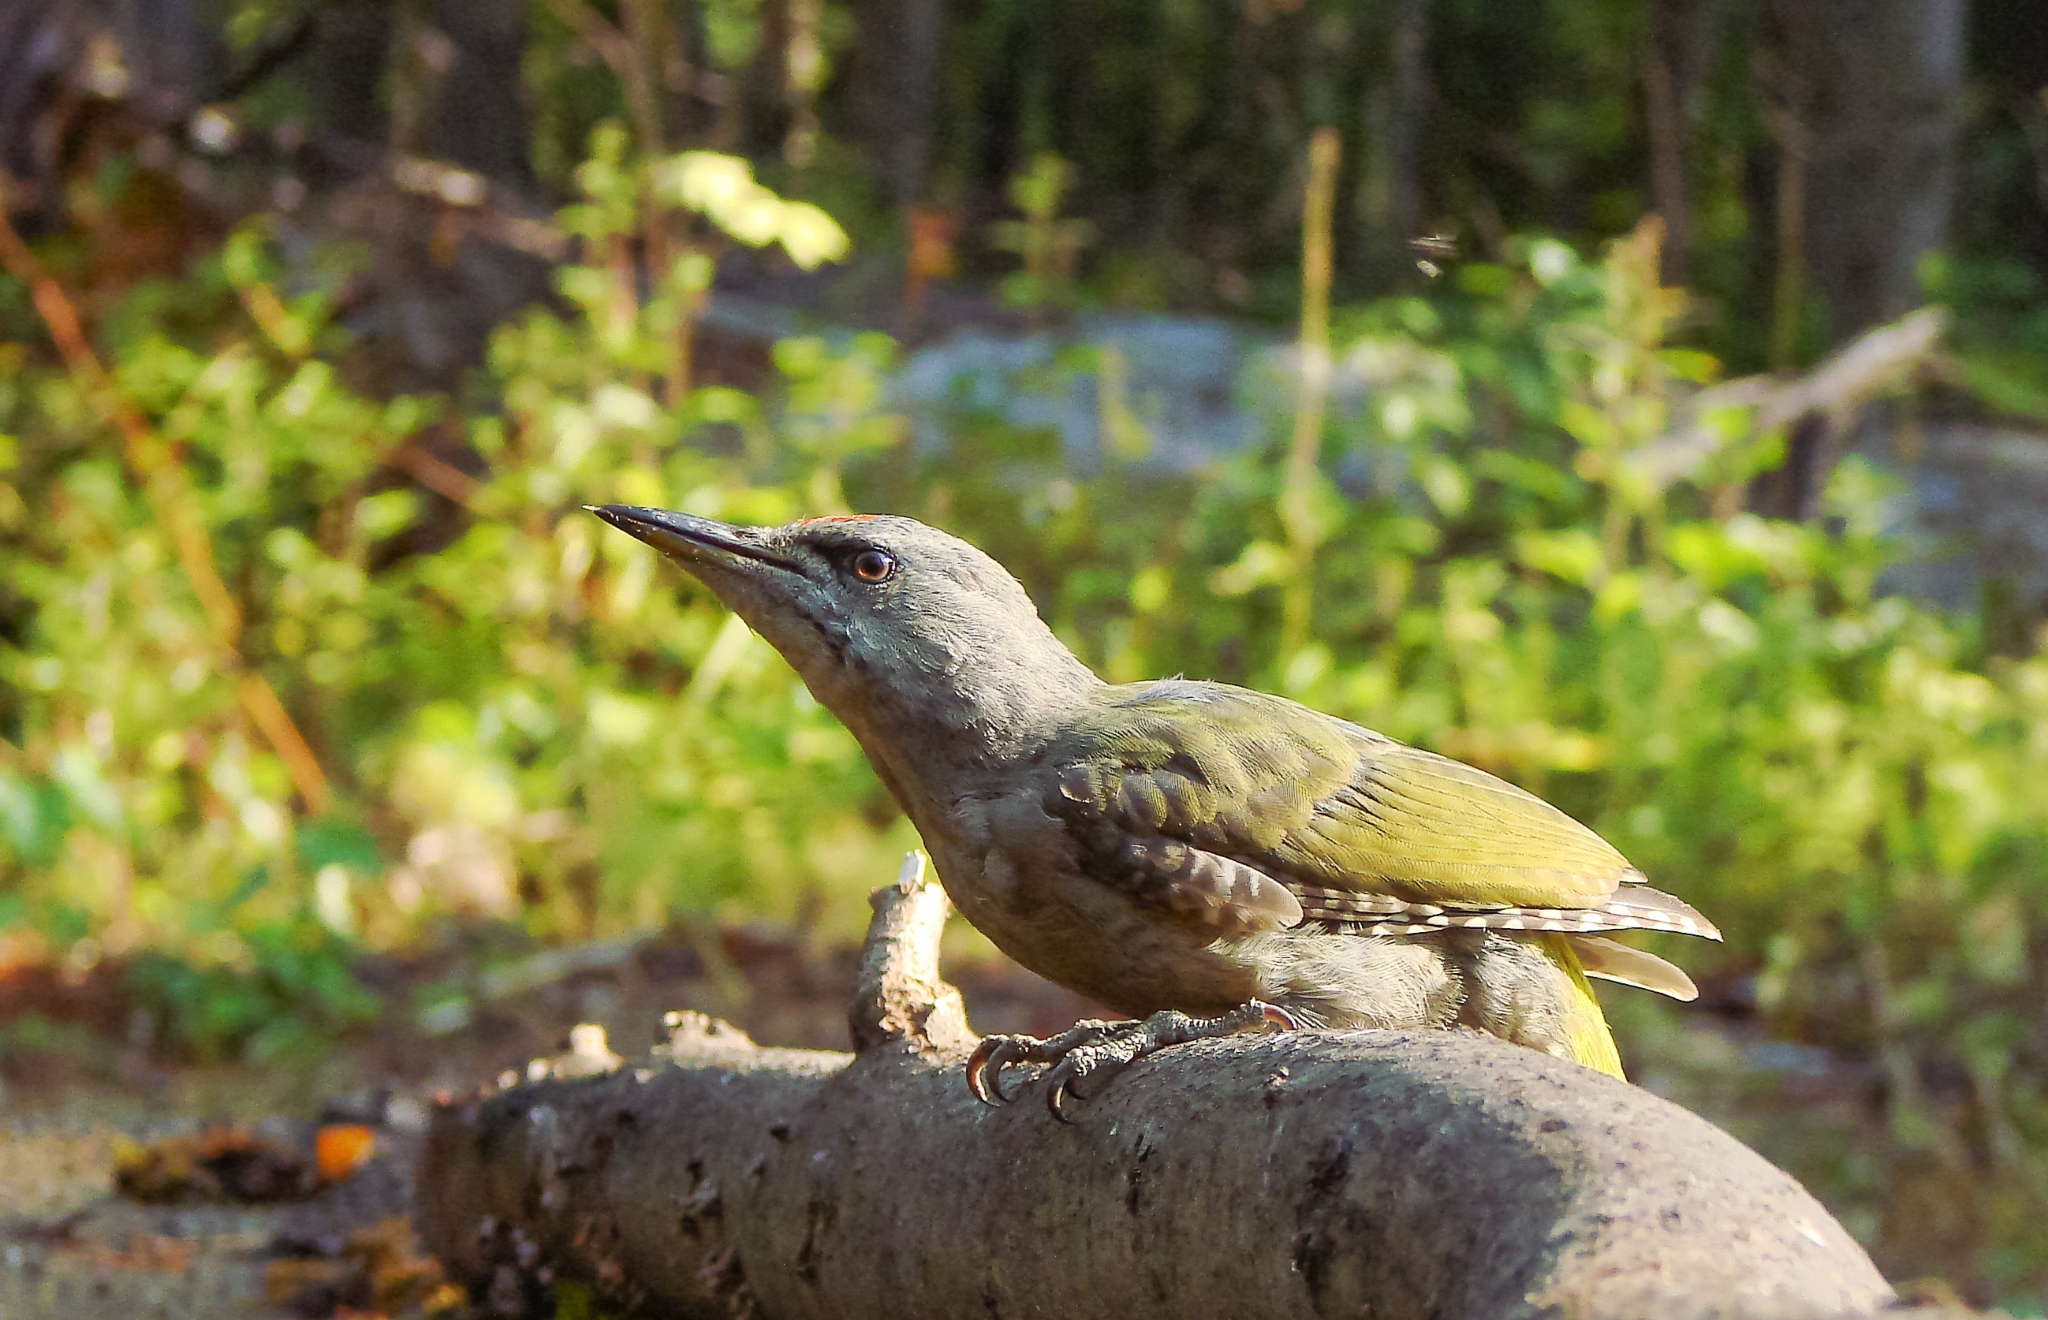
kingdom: Animalia
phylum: Chordata
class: Aves
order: Piciformes
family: Picidae
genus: Picus
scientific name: Picus canus
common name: Grey-headed woodpecker
